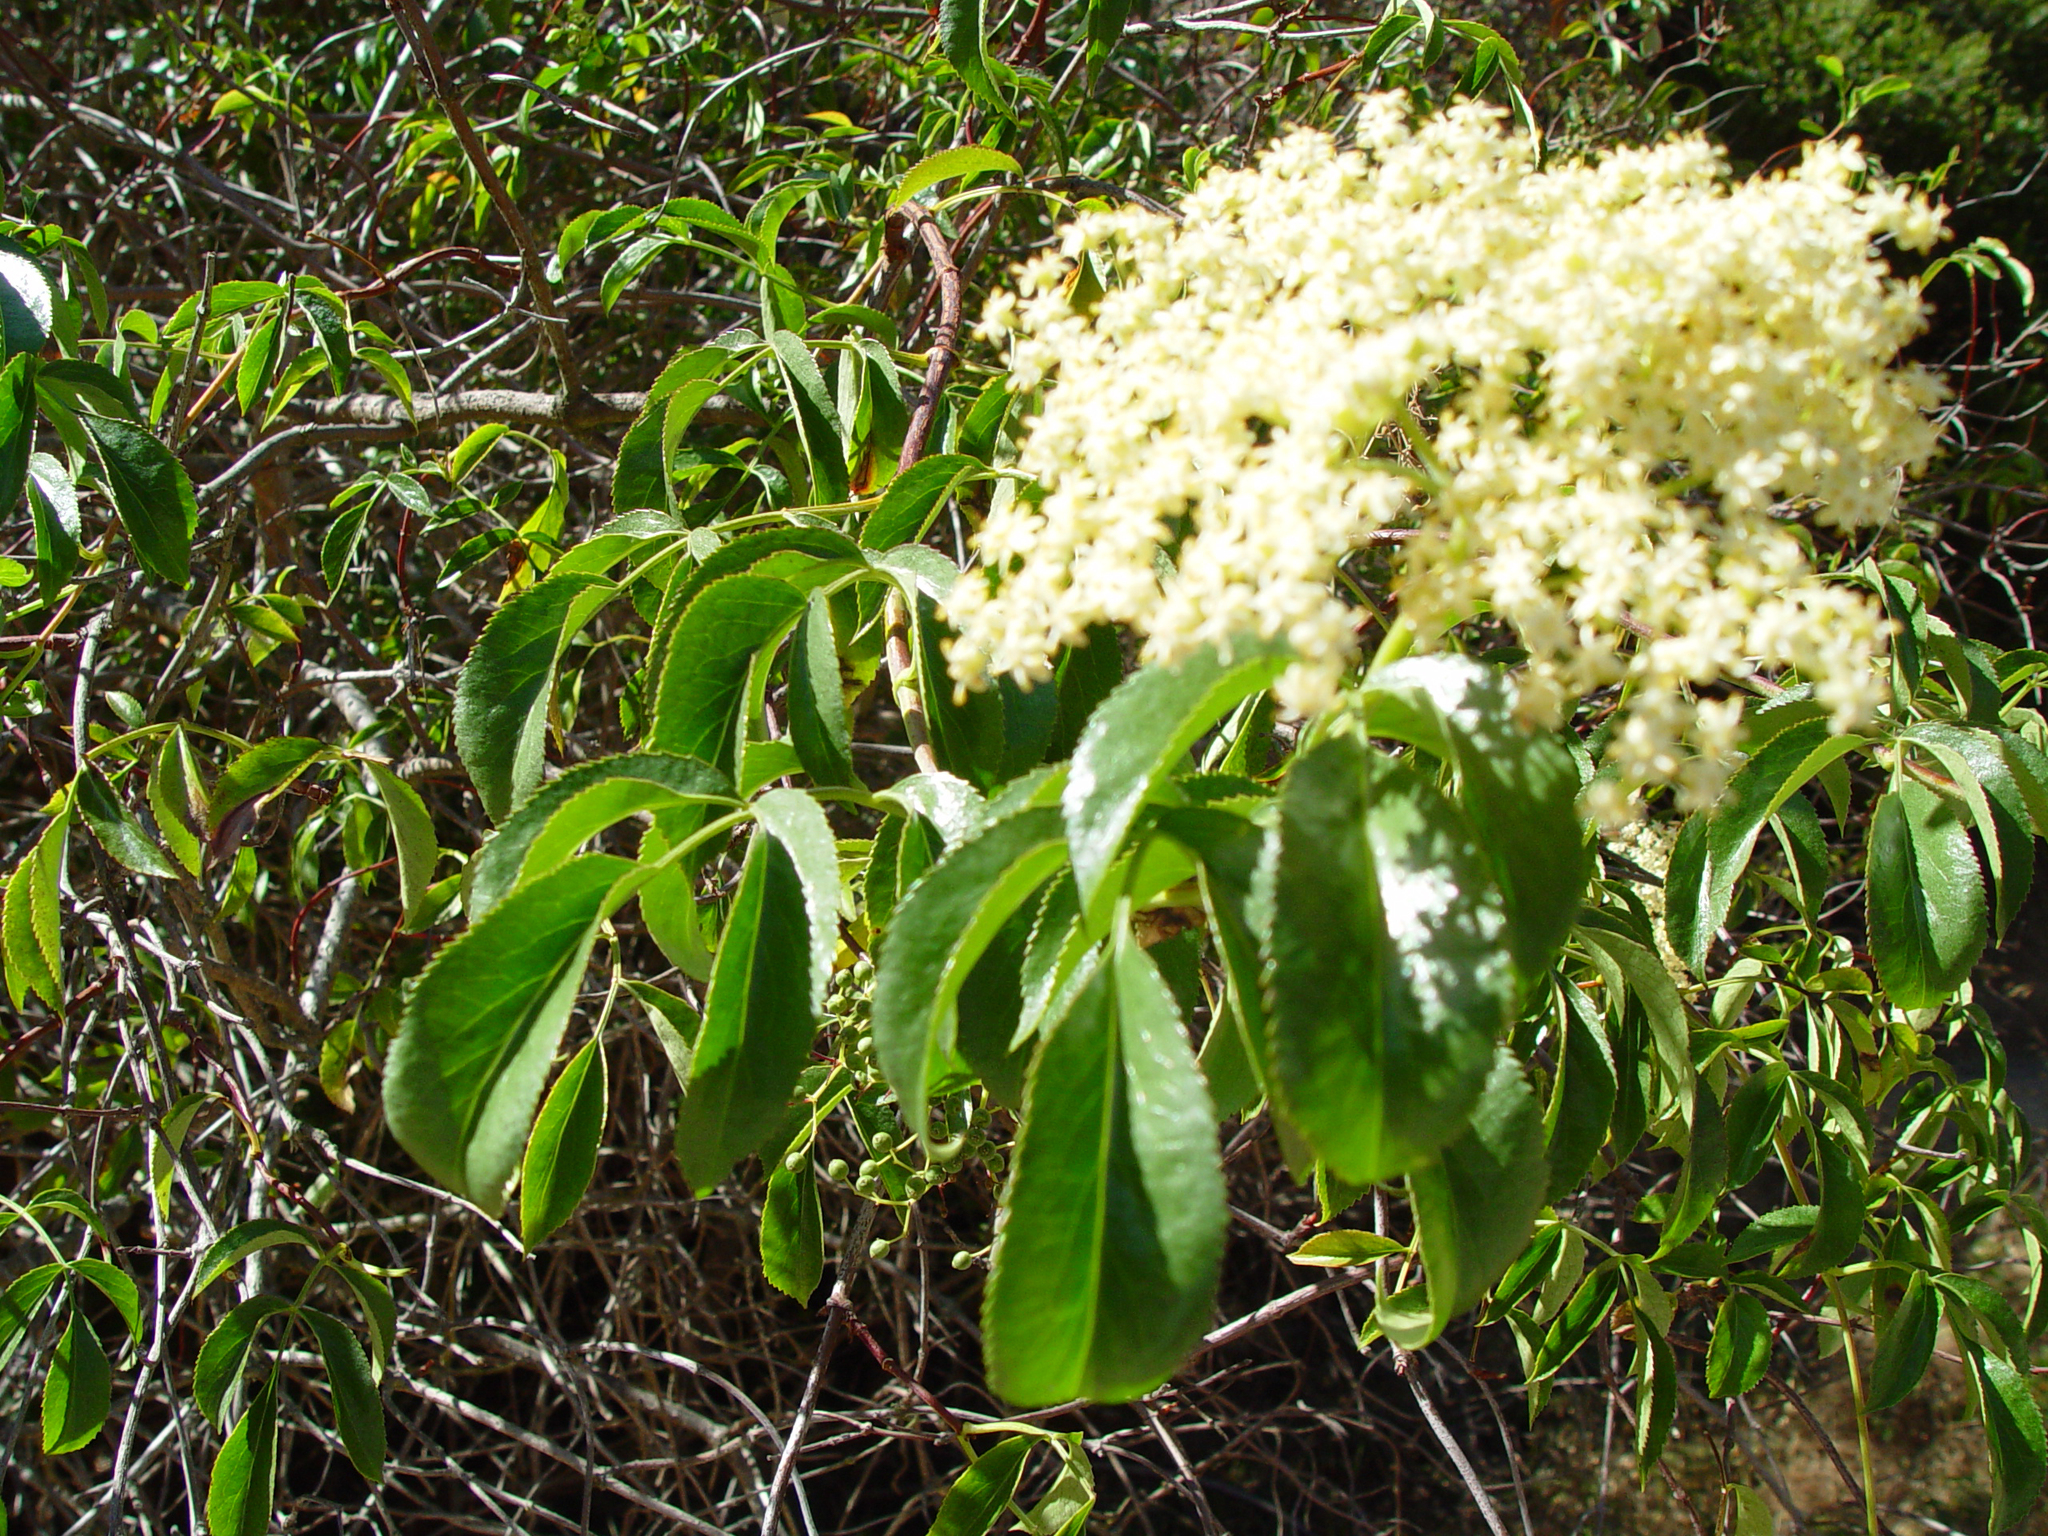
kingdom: Plantae
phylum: Tracheophyta
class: Magnoliopsida
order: Dipsacales
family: Viburnaceae
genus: Sambucus
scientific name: Sambucus cerulea
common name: Blue elder
